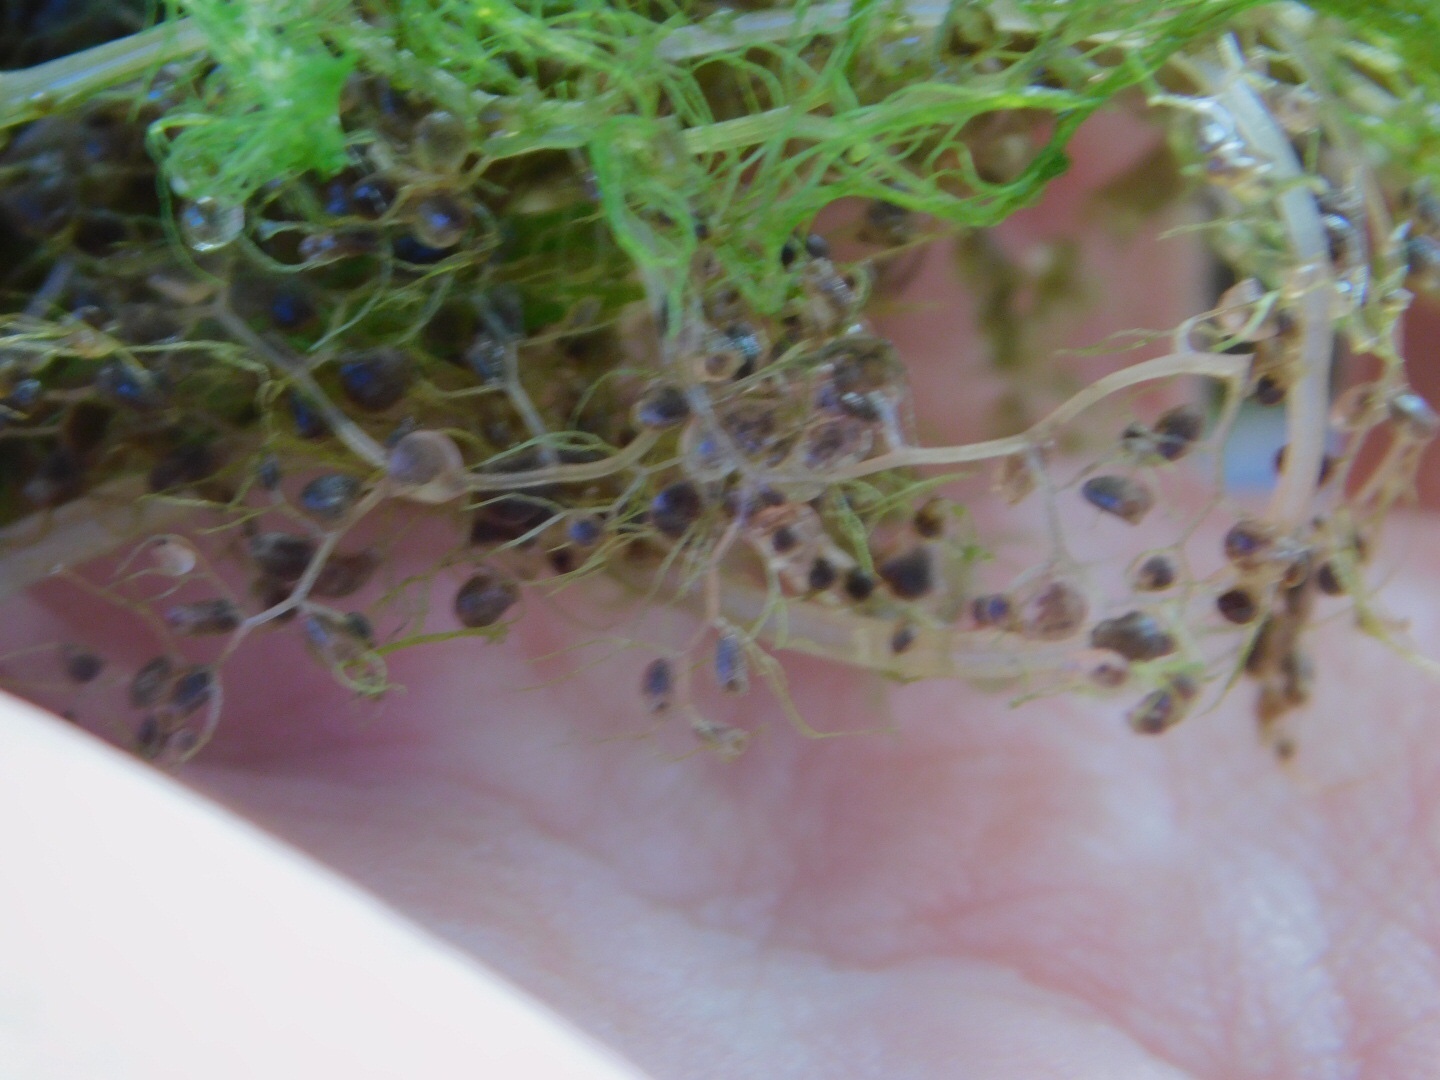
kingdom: Plantae
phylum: Tracheophyta
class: Magnoliopsida
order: Lamiales
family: Lentibulariaceae
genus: Utricularia
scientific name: Utricularia inflata
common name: Floating bladderwort
